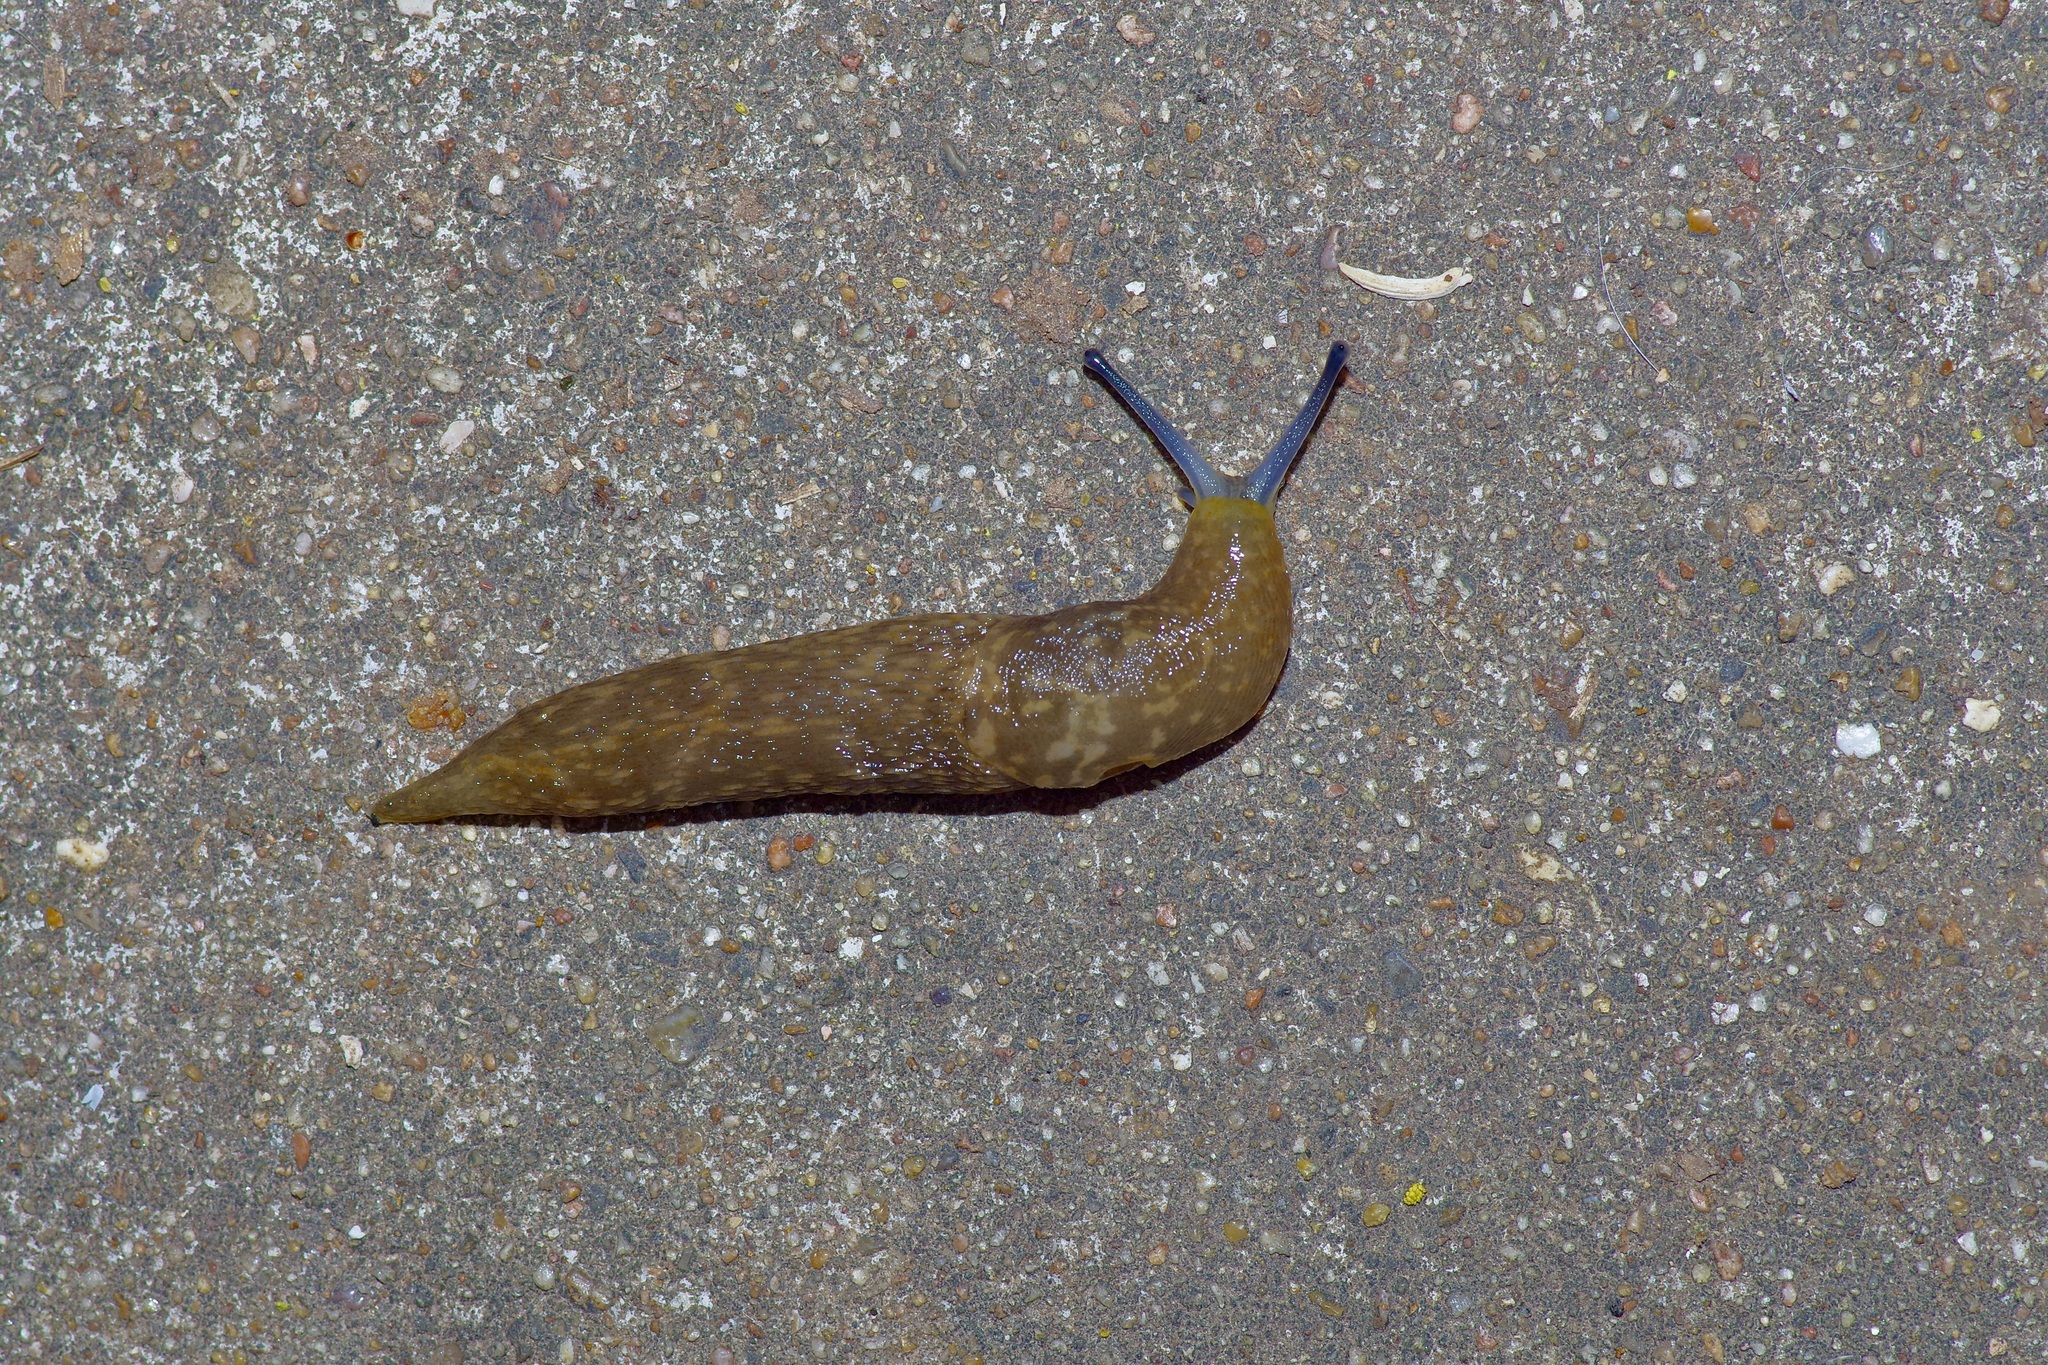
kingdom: Animalia
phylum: Mollusca
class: Gastropoda
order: Stylommatophora
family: Limacidae
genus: Limacus
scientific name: Limacus flavus
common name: Yellow gardenslug
